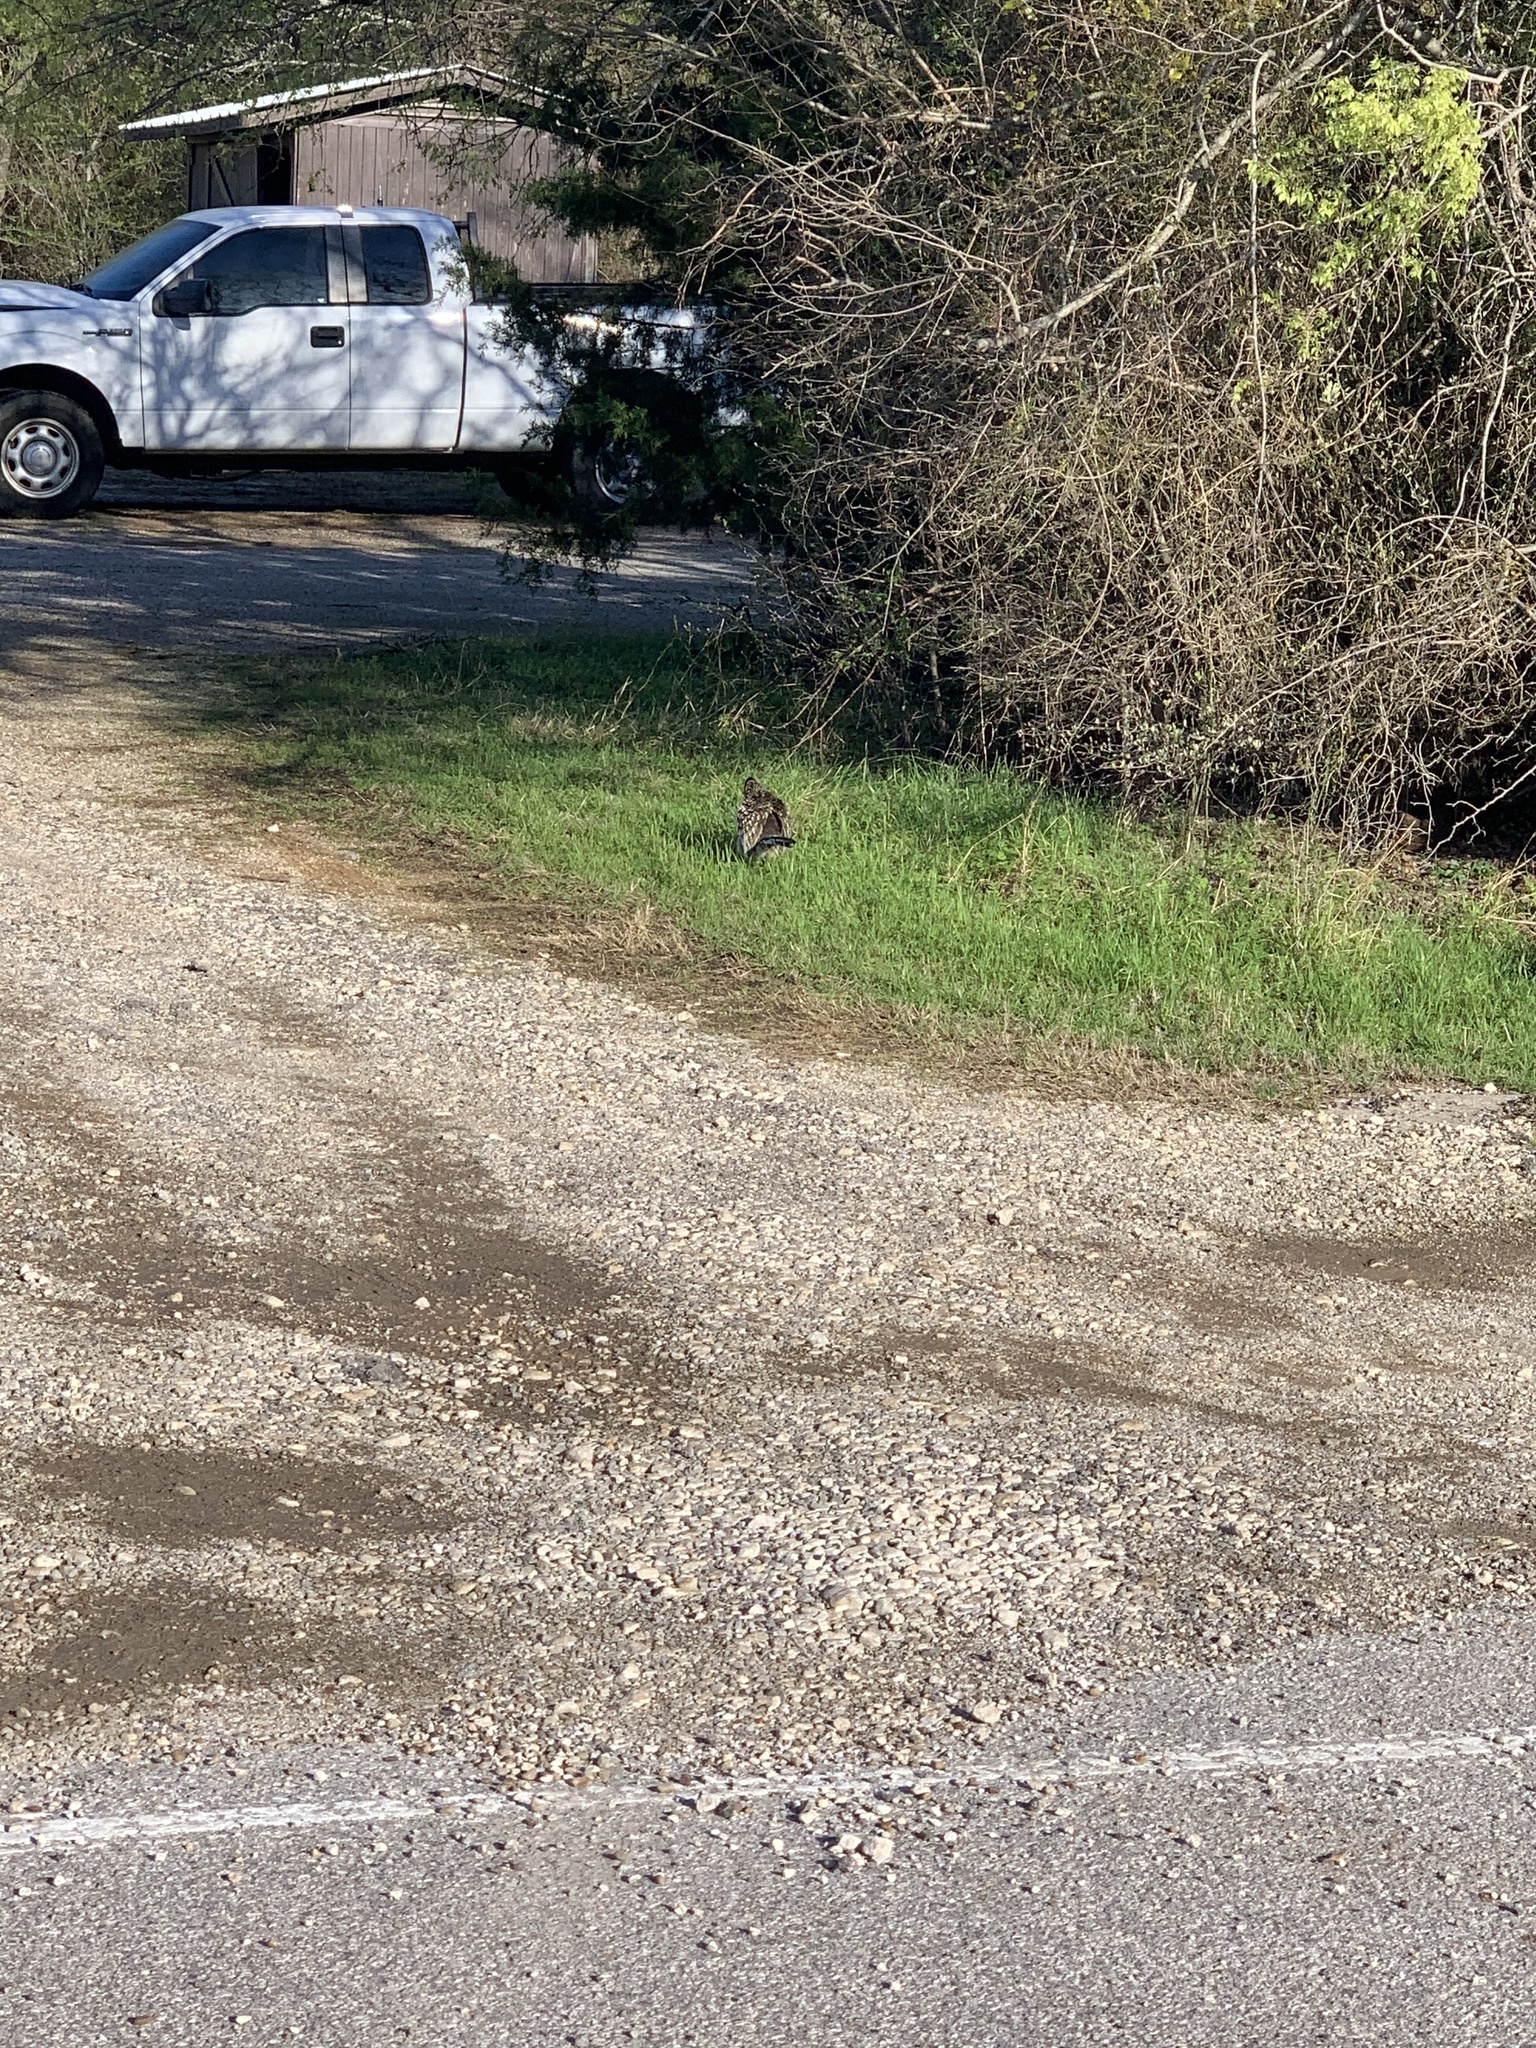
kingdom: Animalia
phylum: Chordata
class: Aves
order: Cuculiformes
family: Cuculidae
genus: Geococcyx
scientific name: Geococcyx californianus
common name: Greater roadrunner
